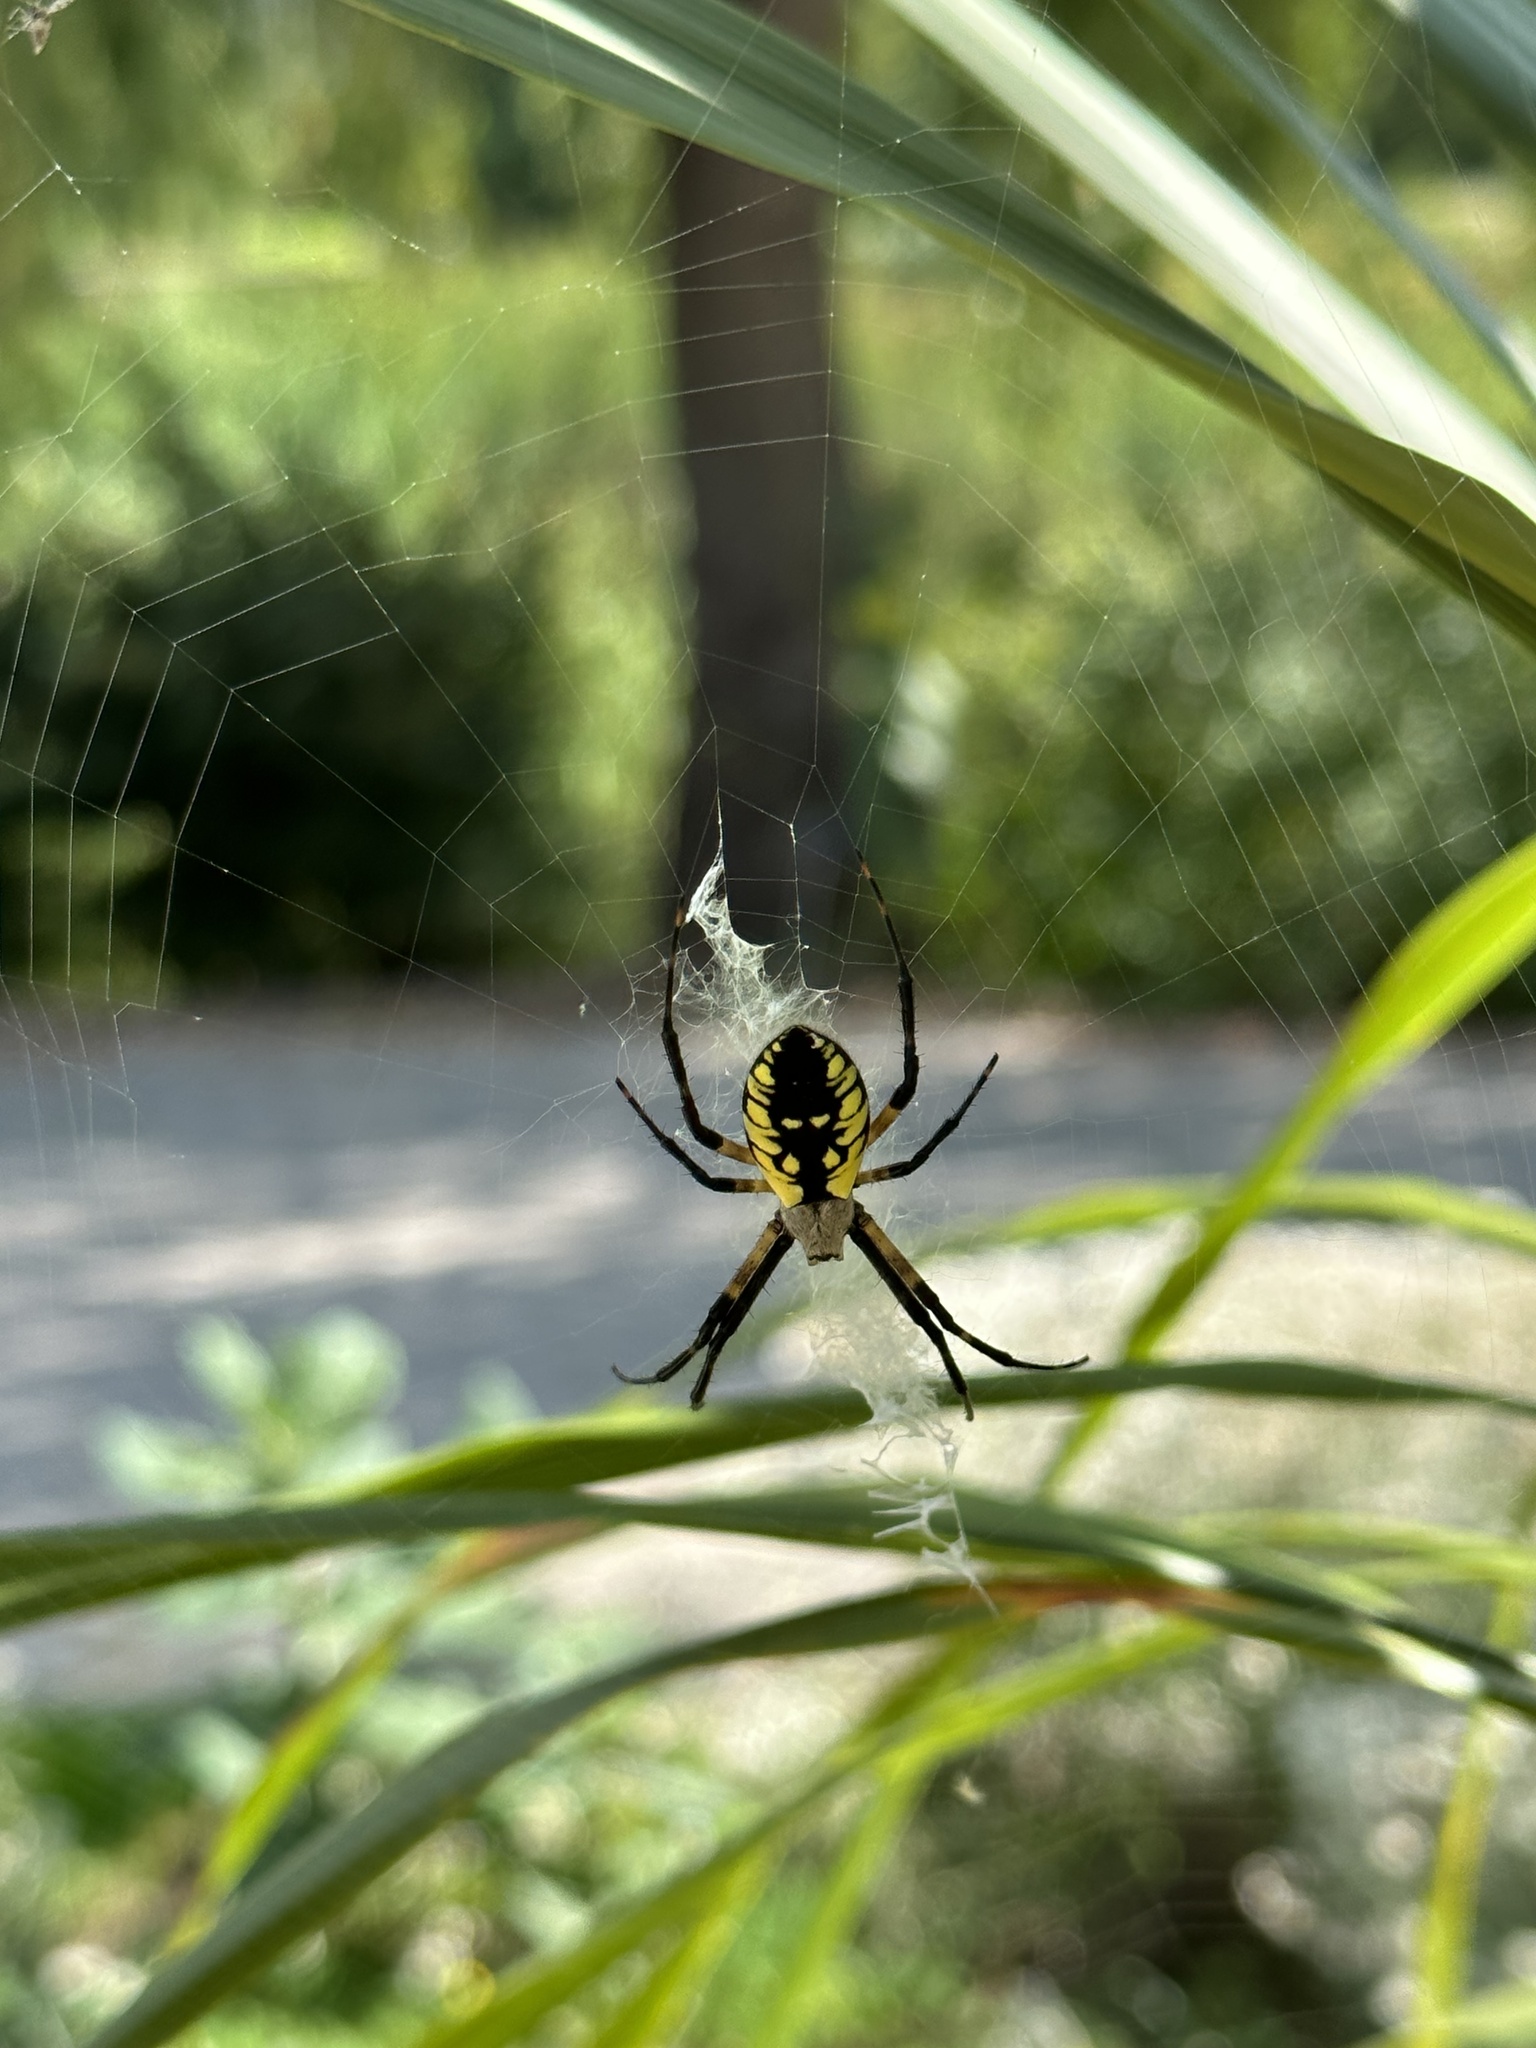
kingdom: Animalia
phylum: Arthropoda
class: Arachnida
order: Araneae
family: Araneidae
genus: Argiope
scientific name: Argiope aurantia
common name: Orb weavers
